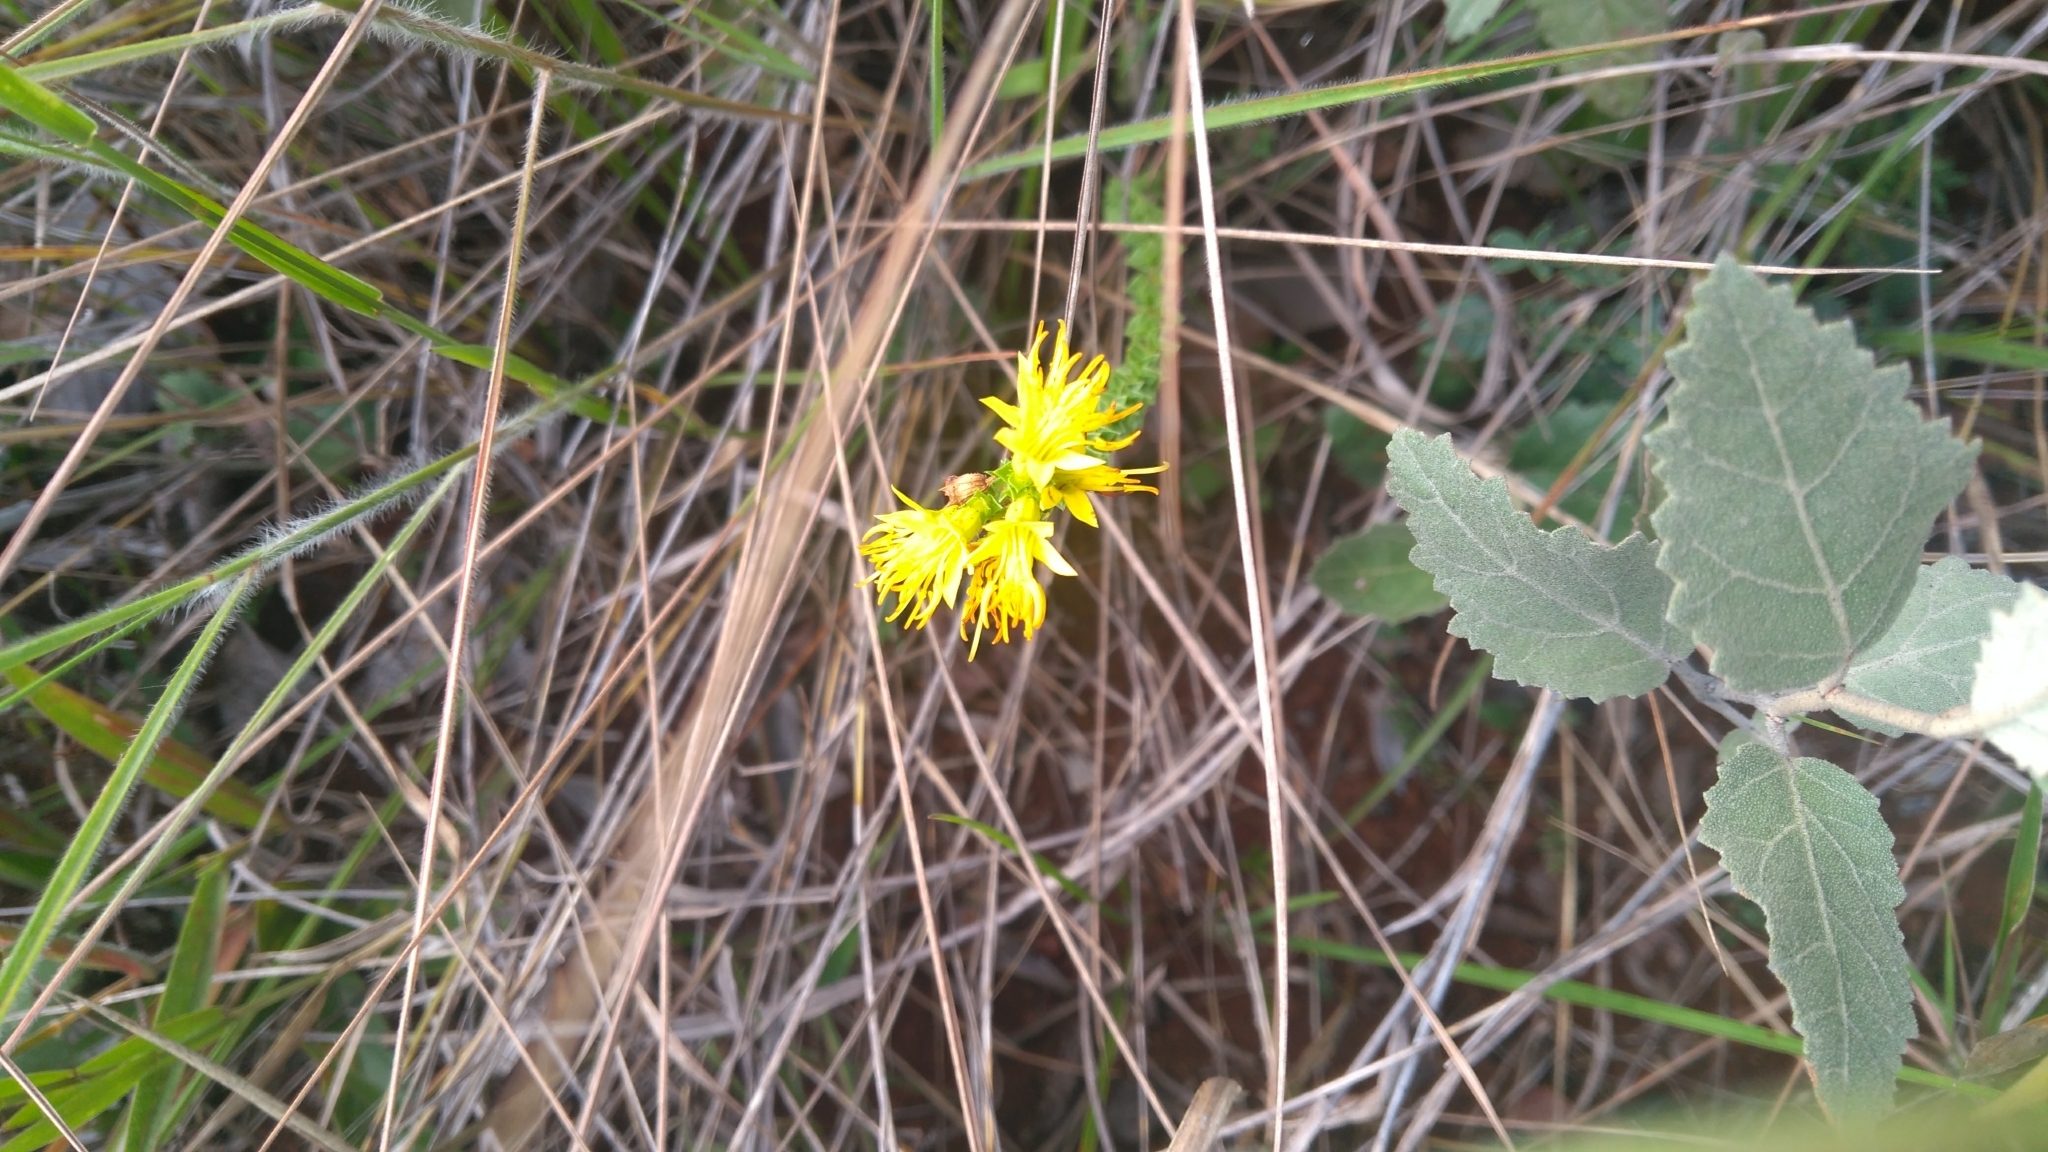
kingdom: Plantae
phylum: Tracheophyta
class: Magnoliopsida
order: Myrtales
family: Melastomataceae
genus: Cambessedesia
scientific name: Cambessedesia espora
